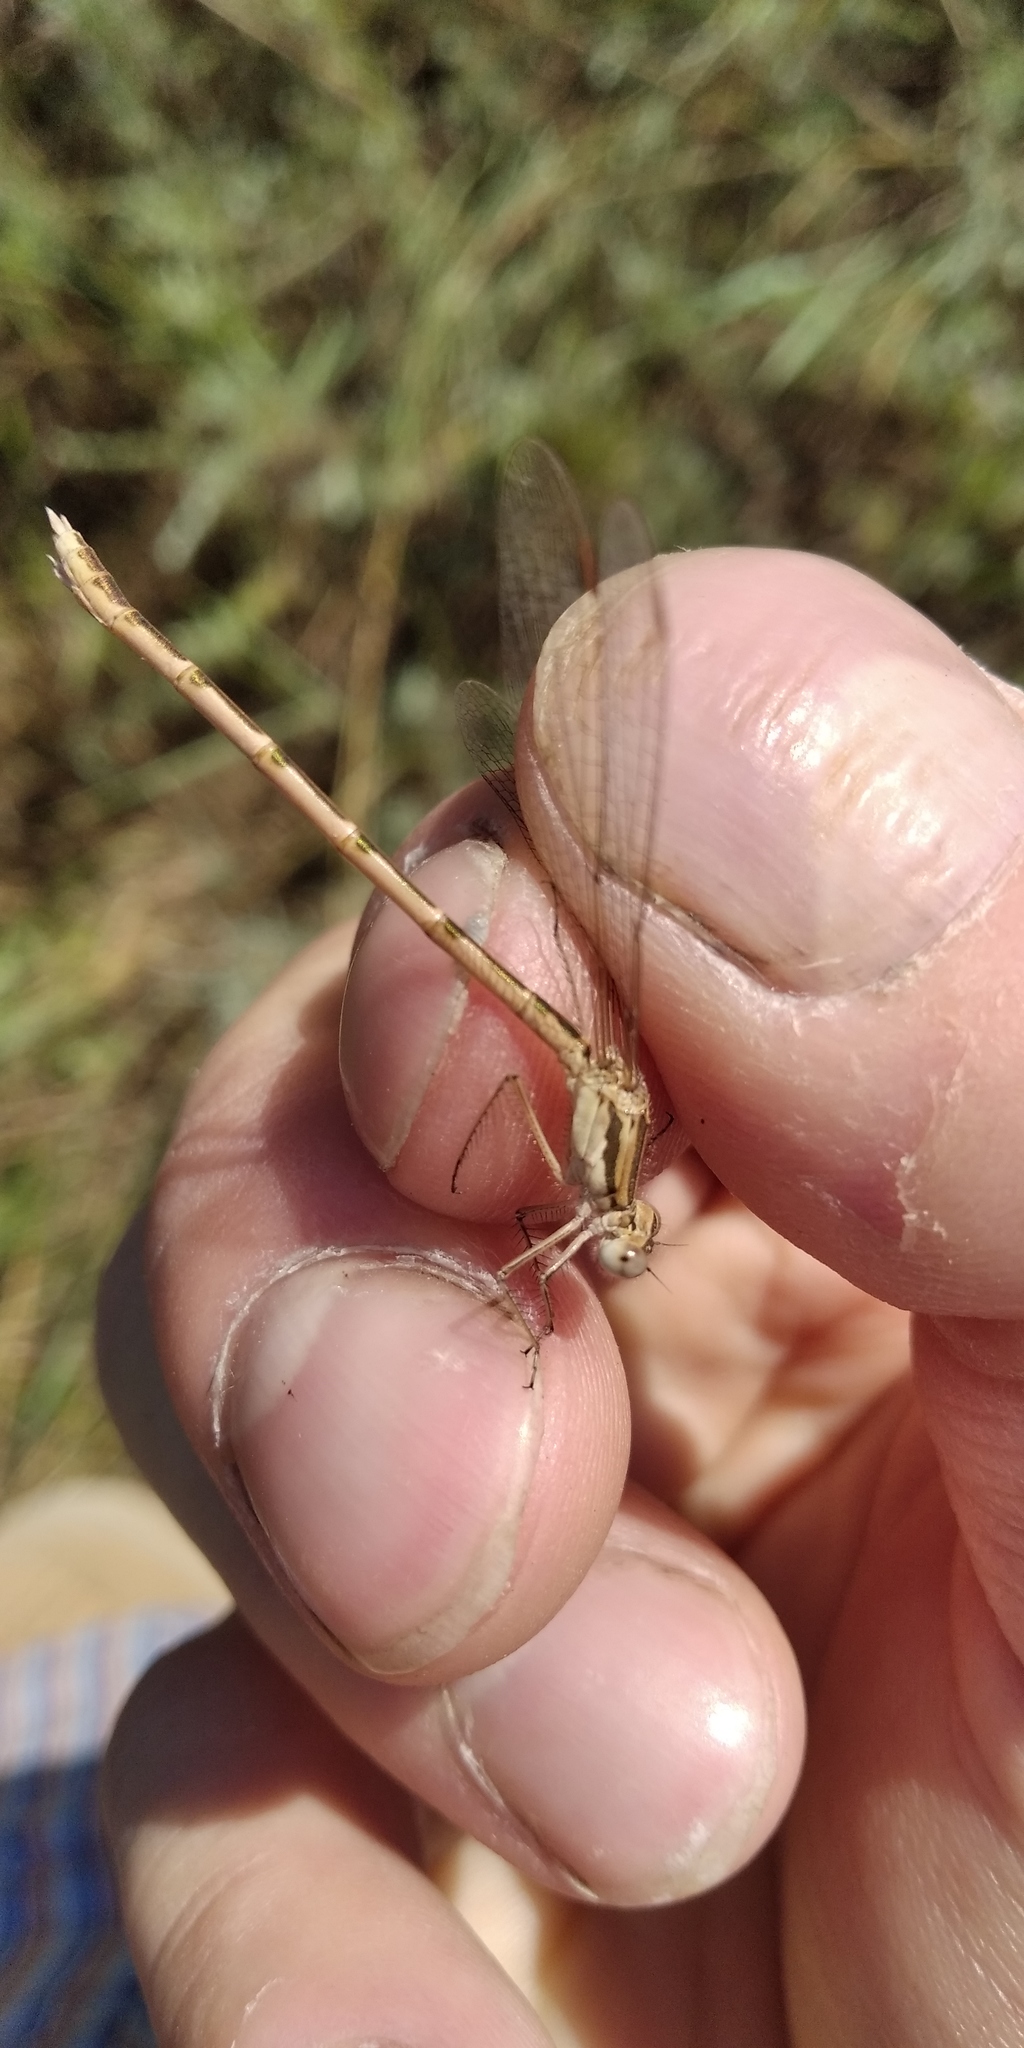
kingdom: Animalia
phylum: Arthropoda
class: Insecta
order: Odonata
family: Lestidae
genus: Sympecma
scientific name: Sympecma fusca
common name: Common winter damsel
